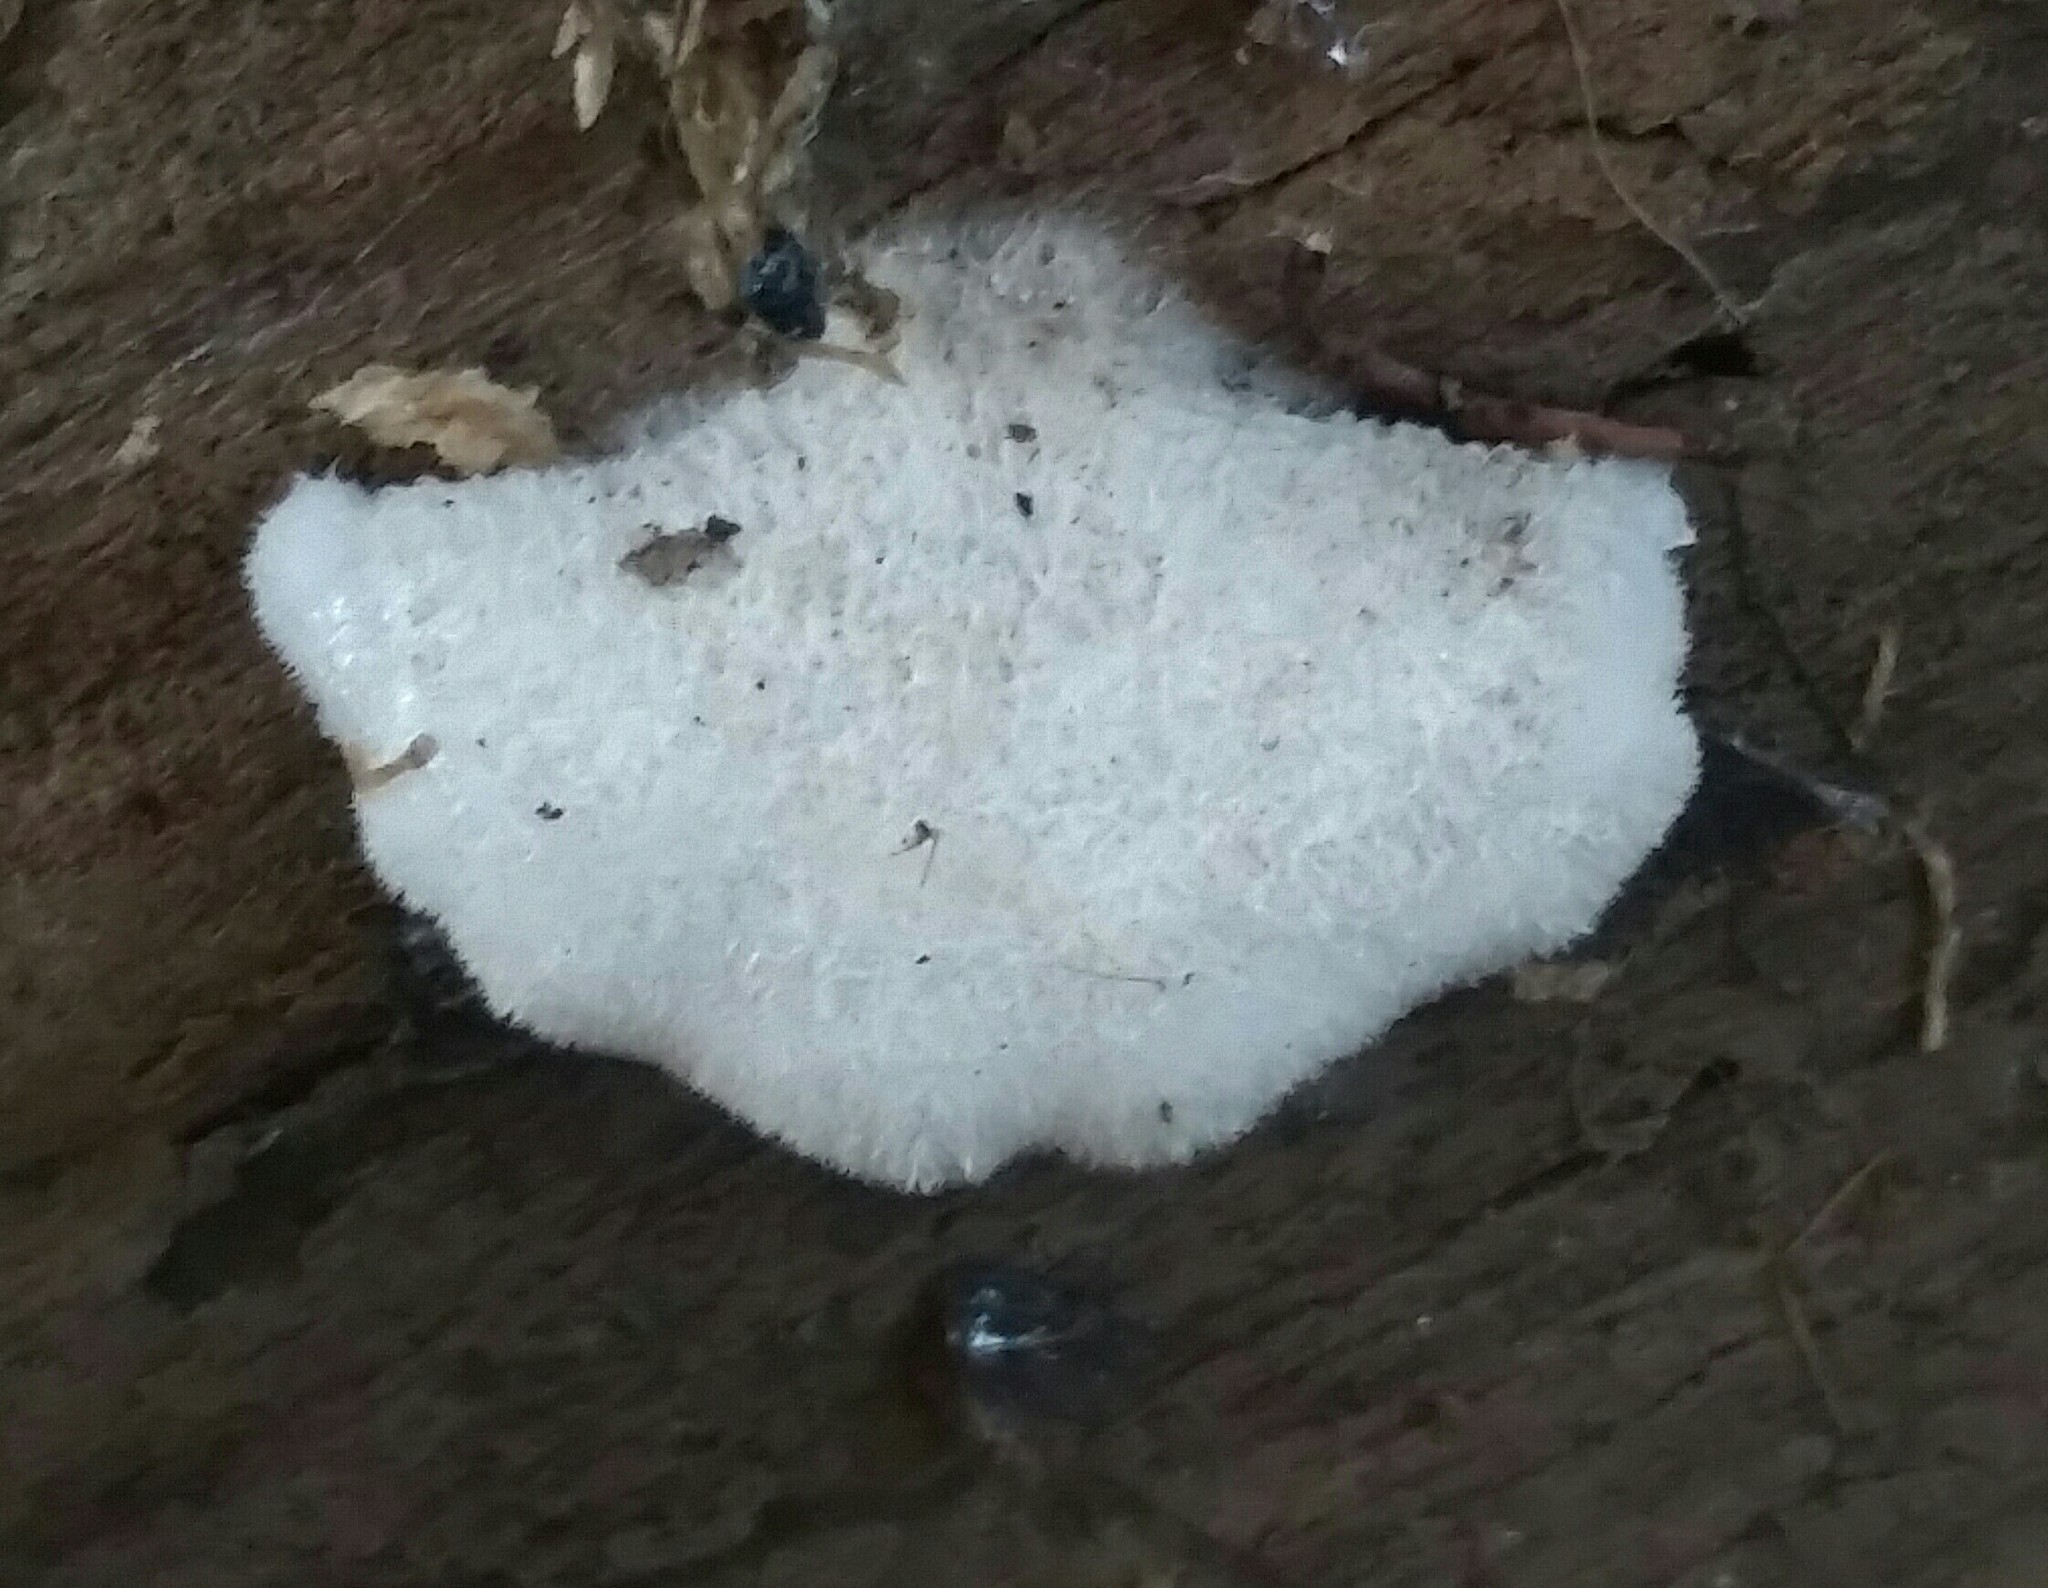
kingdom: Fungi
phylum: Basidiomycota
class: Agaricomycetes
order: Agaricales
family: Schizophyllaceae
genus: Schizophyllum
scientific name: Schizophyllum commune
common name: Common porecrust
